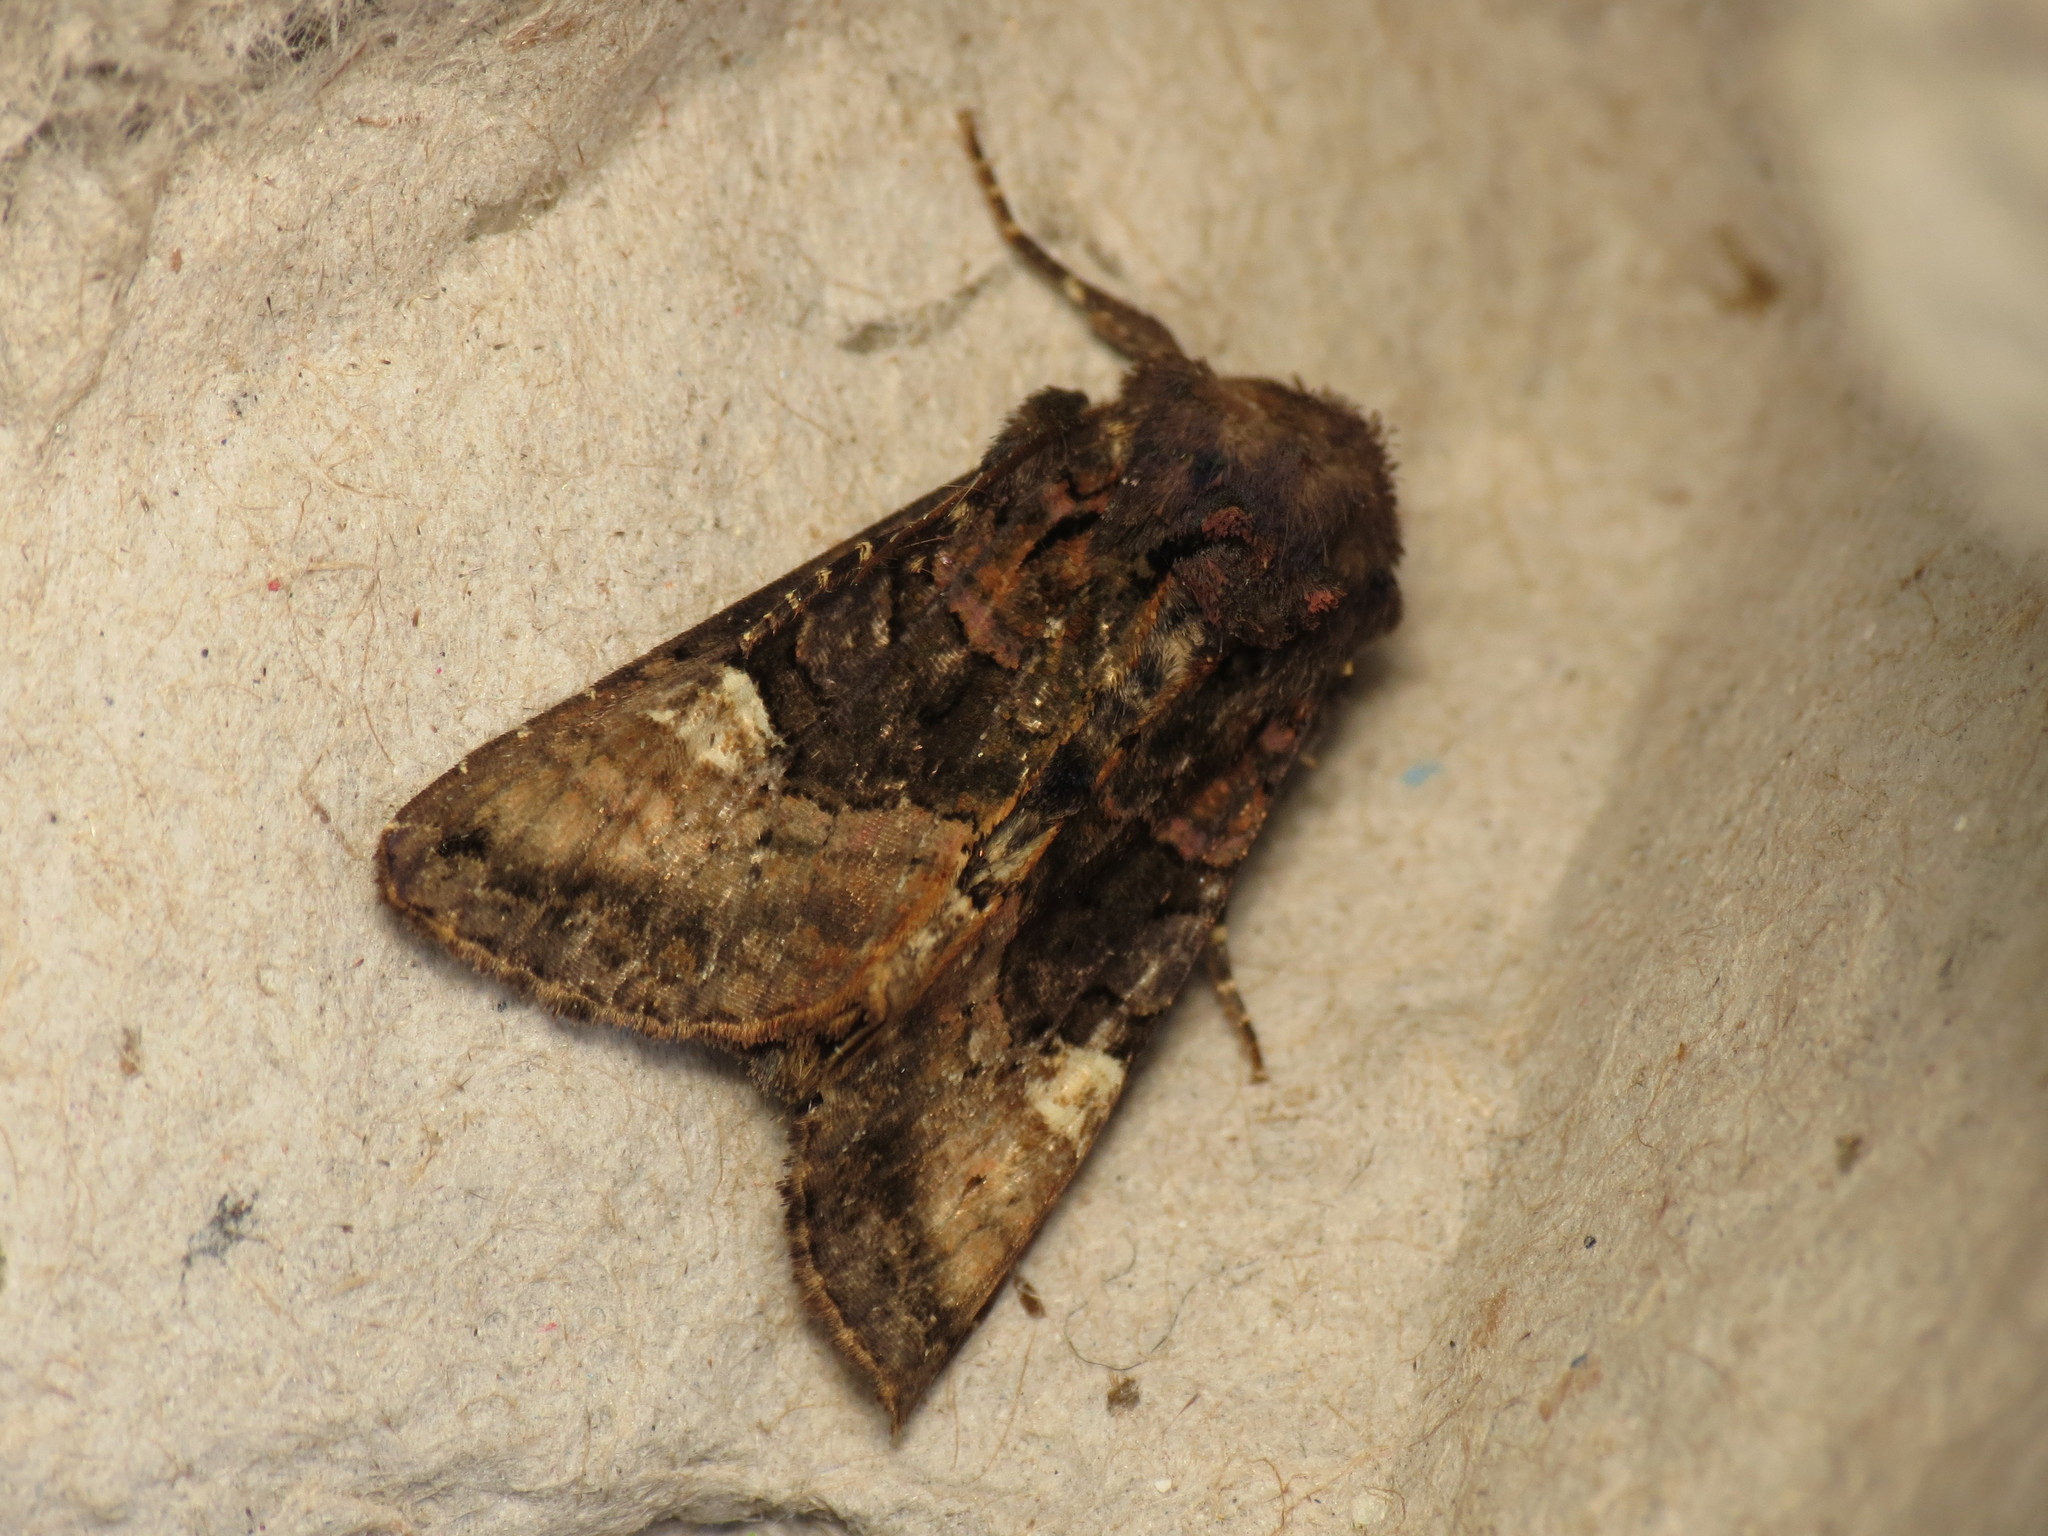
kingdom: Animalia
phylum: Arthropoda
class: Insecta
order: Lepidoptera
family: Noctuidae
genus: Euplexia
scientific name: Euplexia lucipara
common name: Small angle shades
